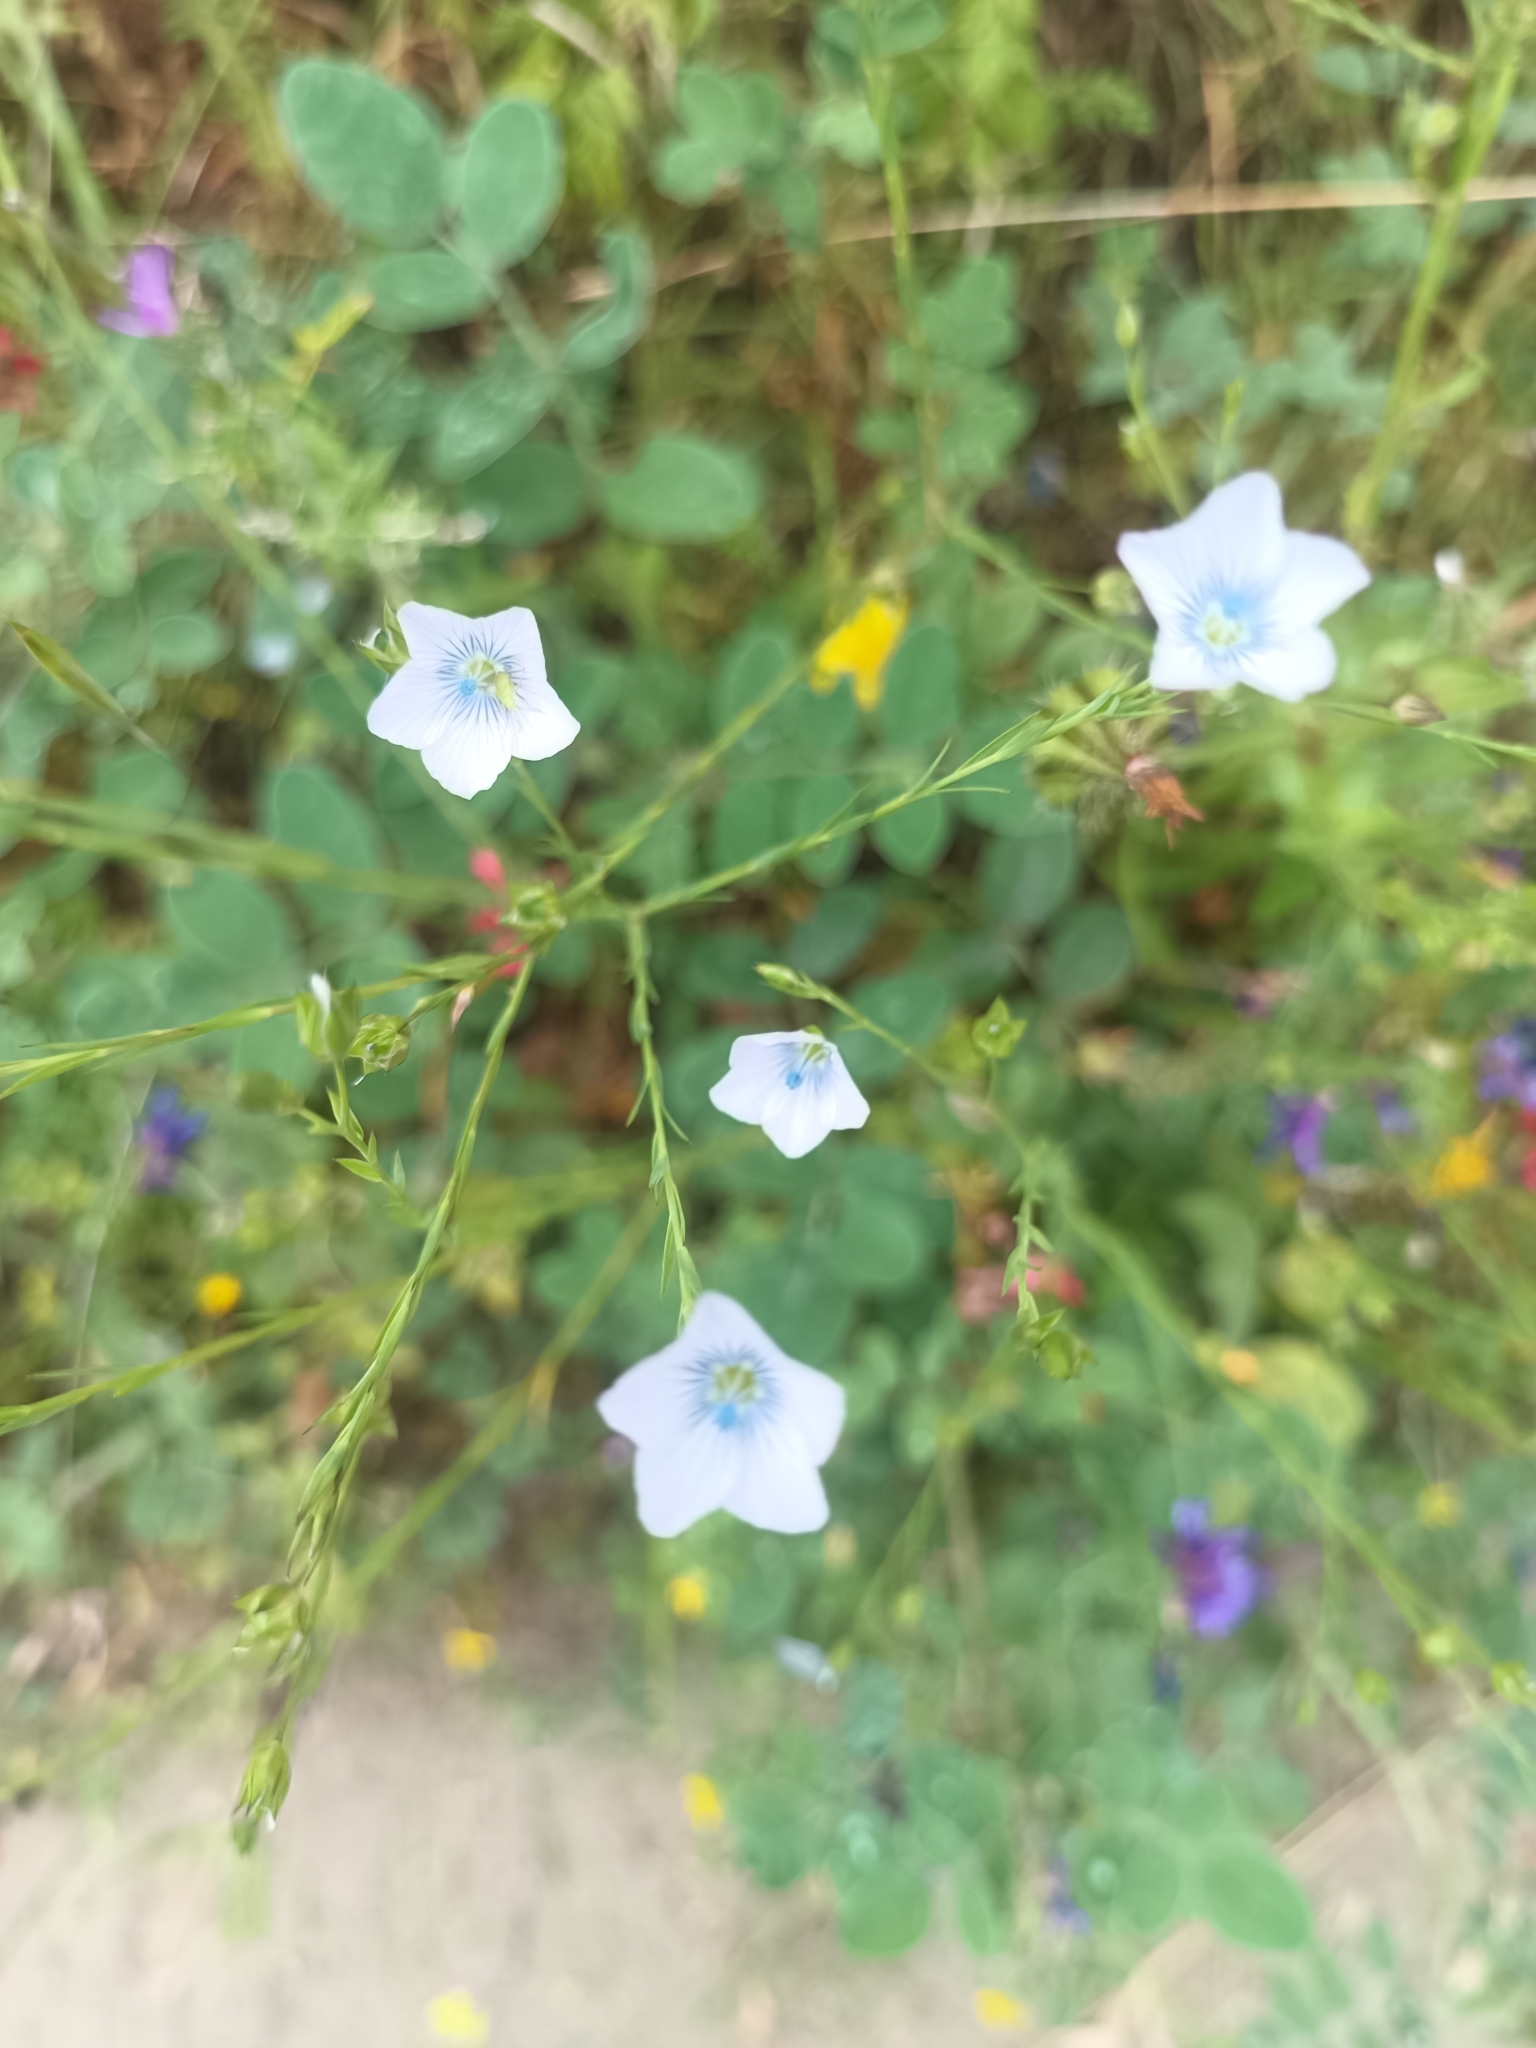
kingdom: Plantae
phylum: Tracheophyta
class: Magnoliopsida
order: Malpighiales
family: Linaceae
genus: Linum
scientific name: Linum bienne
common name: Pale flax
